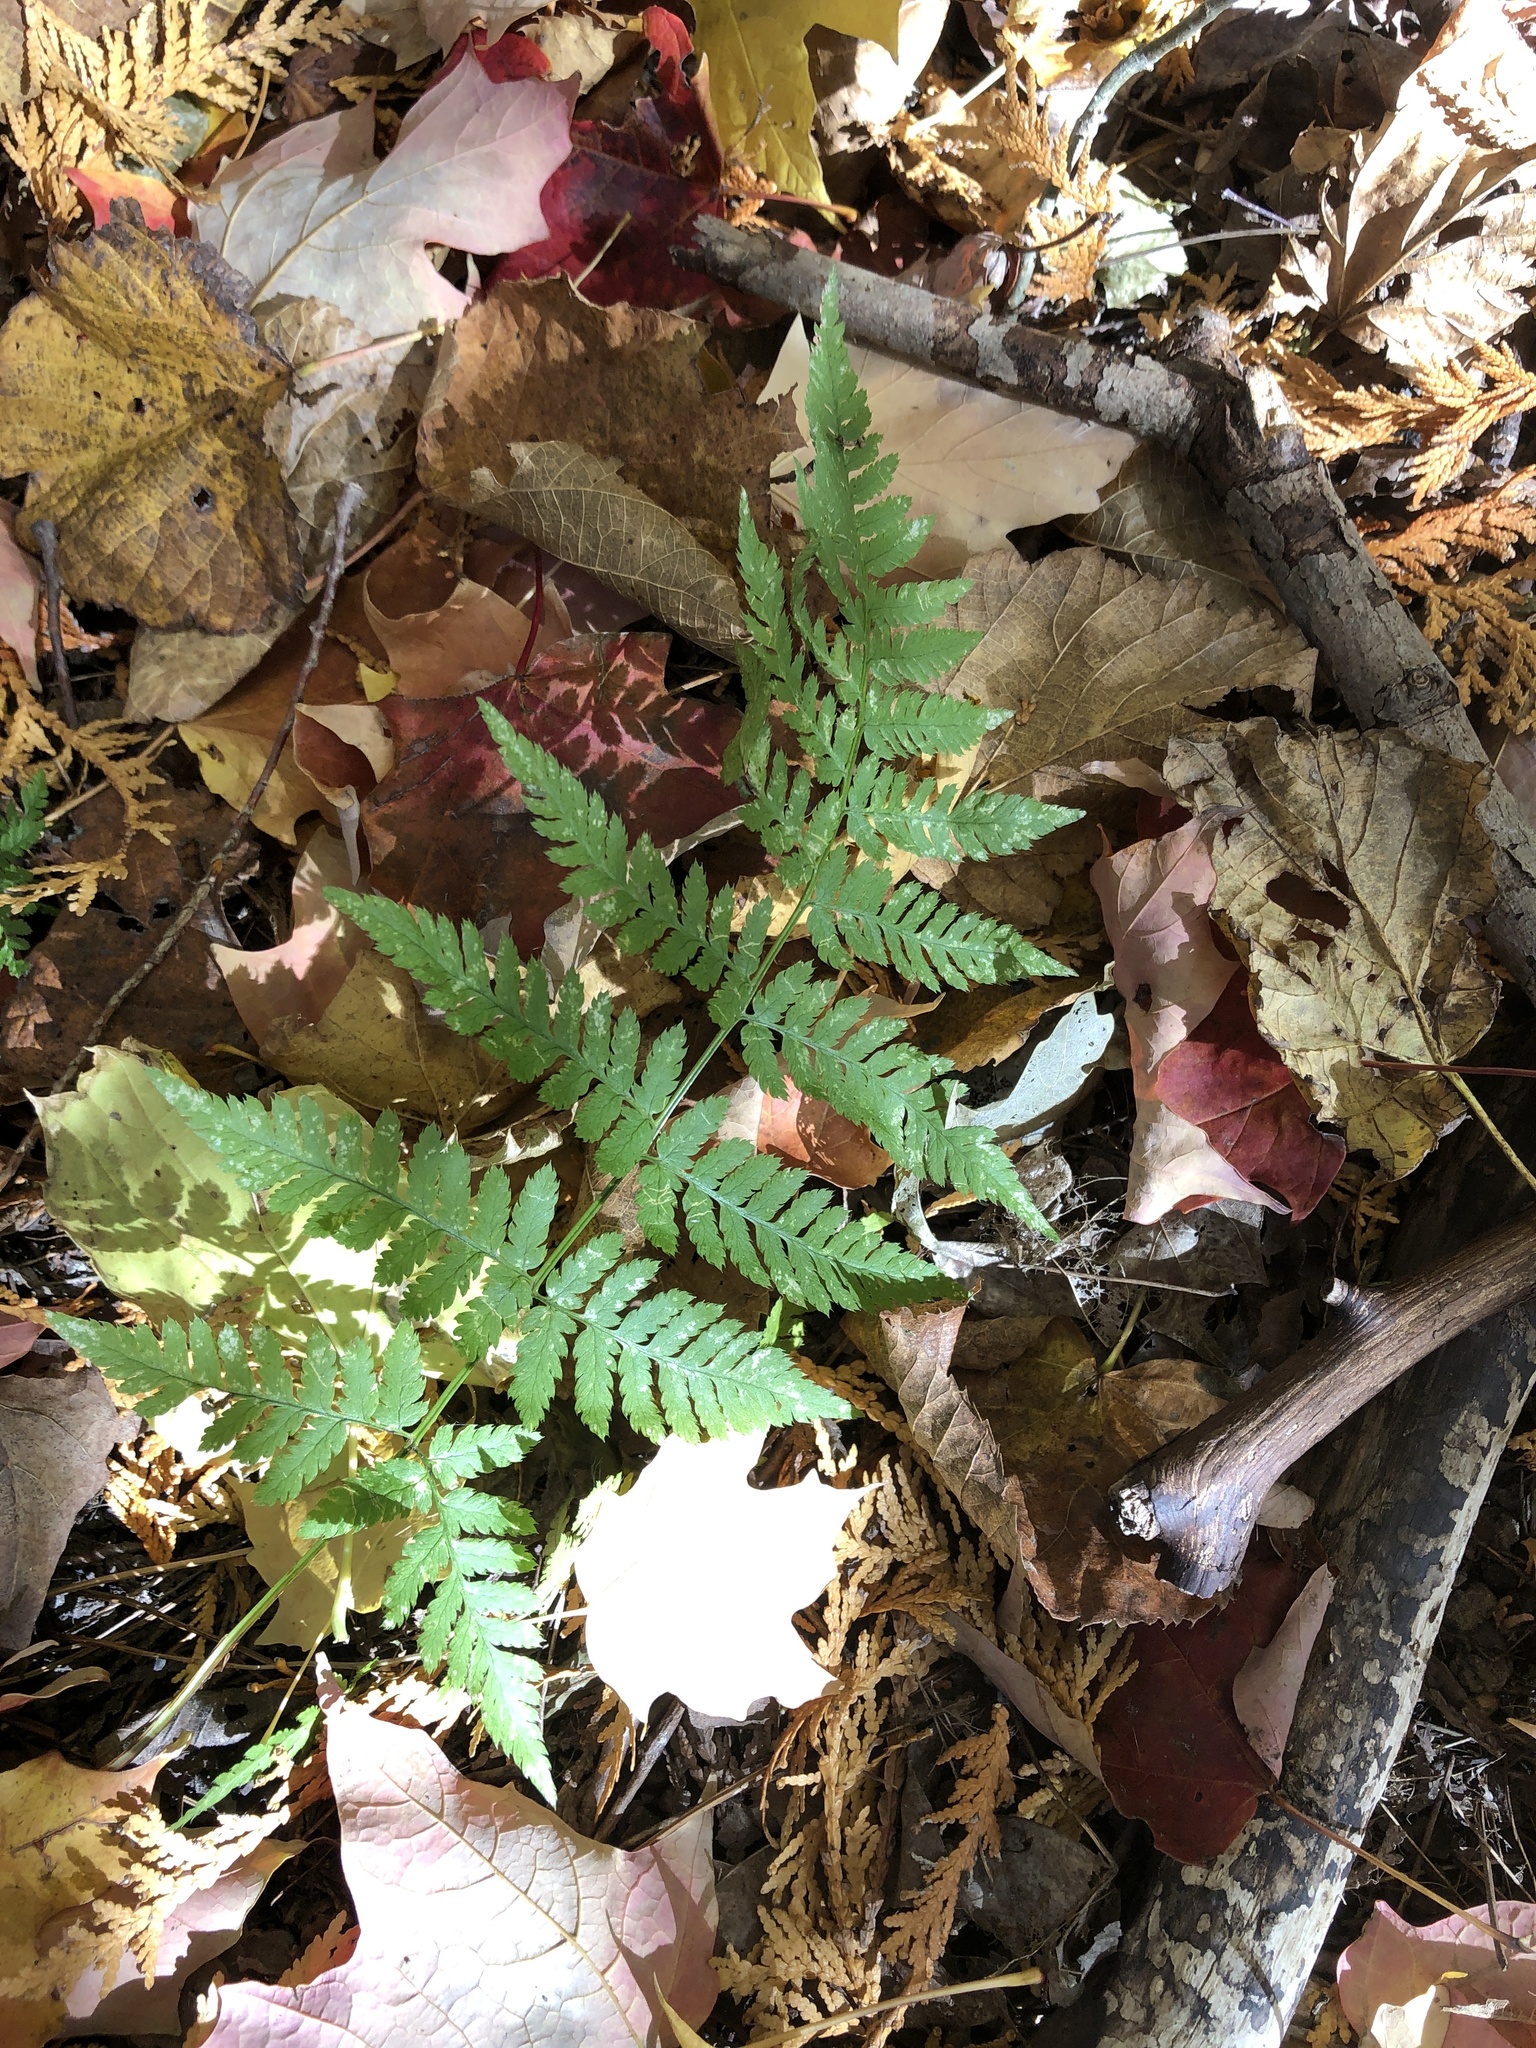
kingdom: Plantae
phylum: Tracheophyta
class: Polypodiopsida
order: Polypodiales
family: Dryopteridaceae
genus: Dryopteris
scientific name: Dryopteris carthusiana
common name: Narrow buckler-fern
